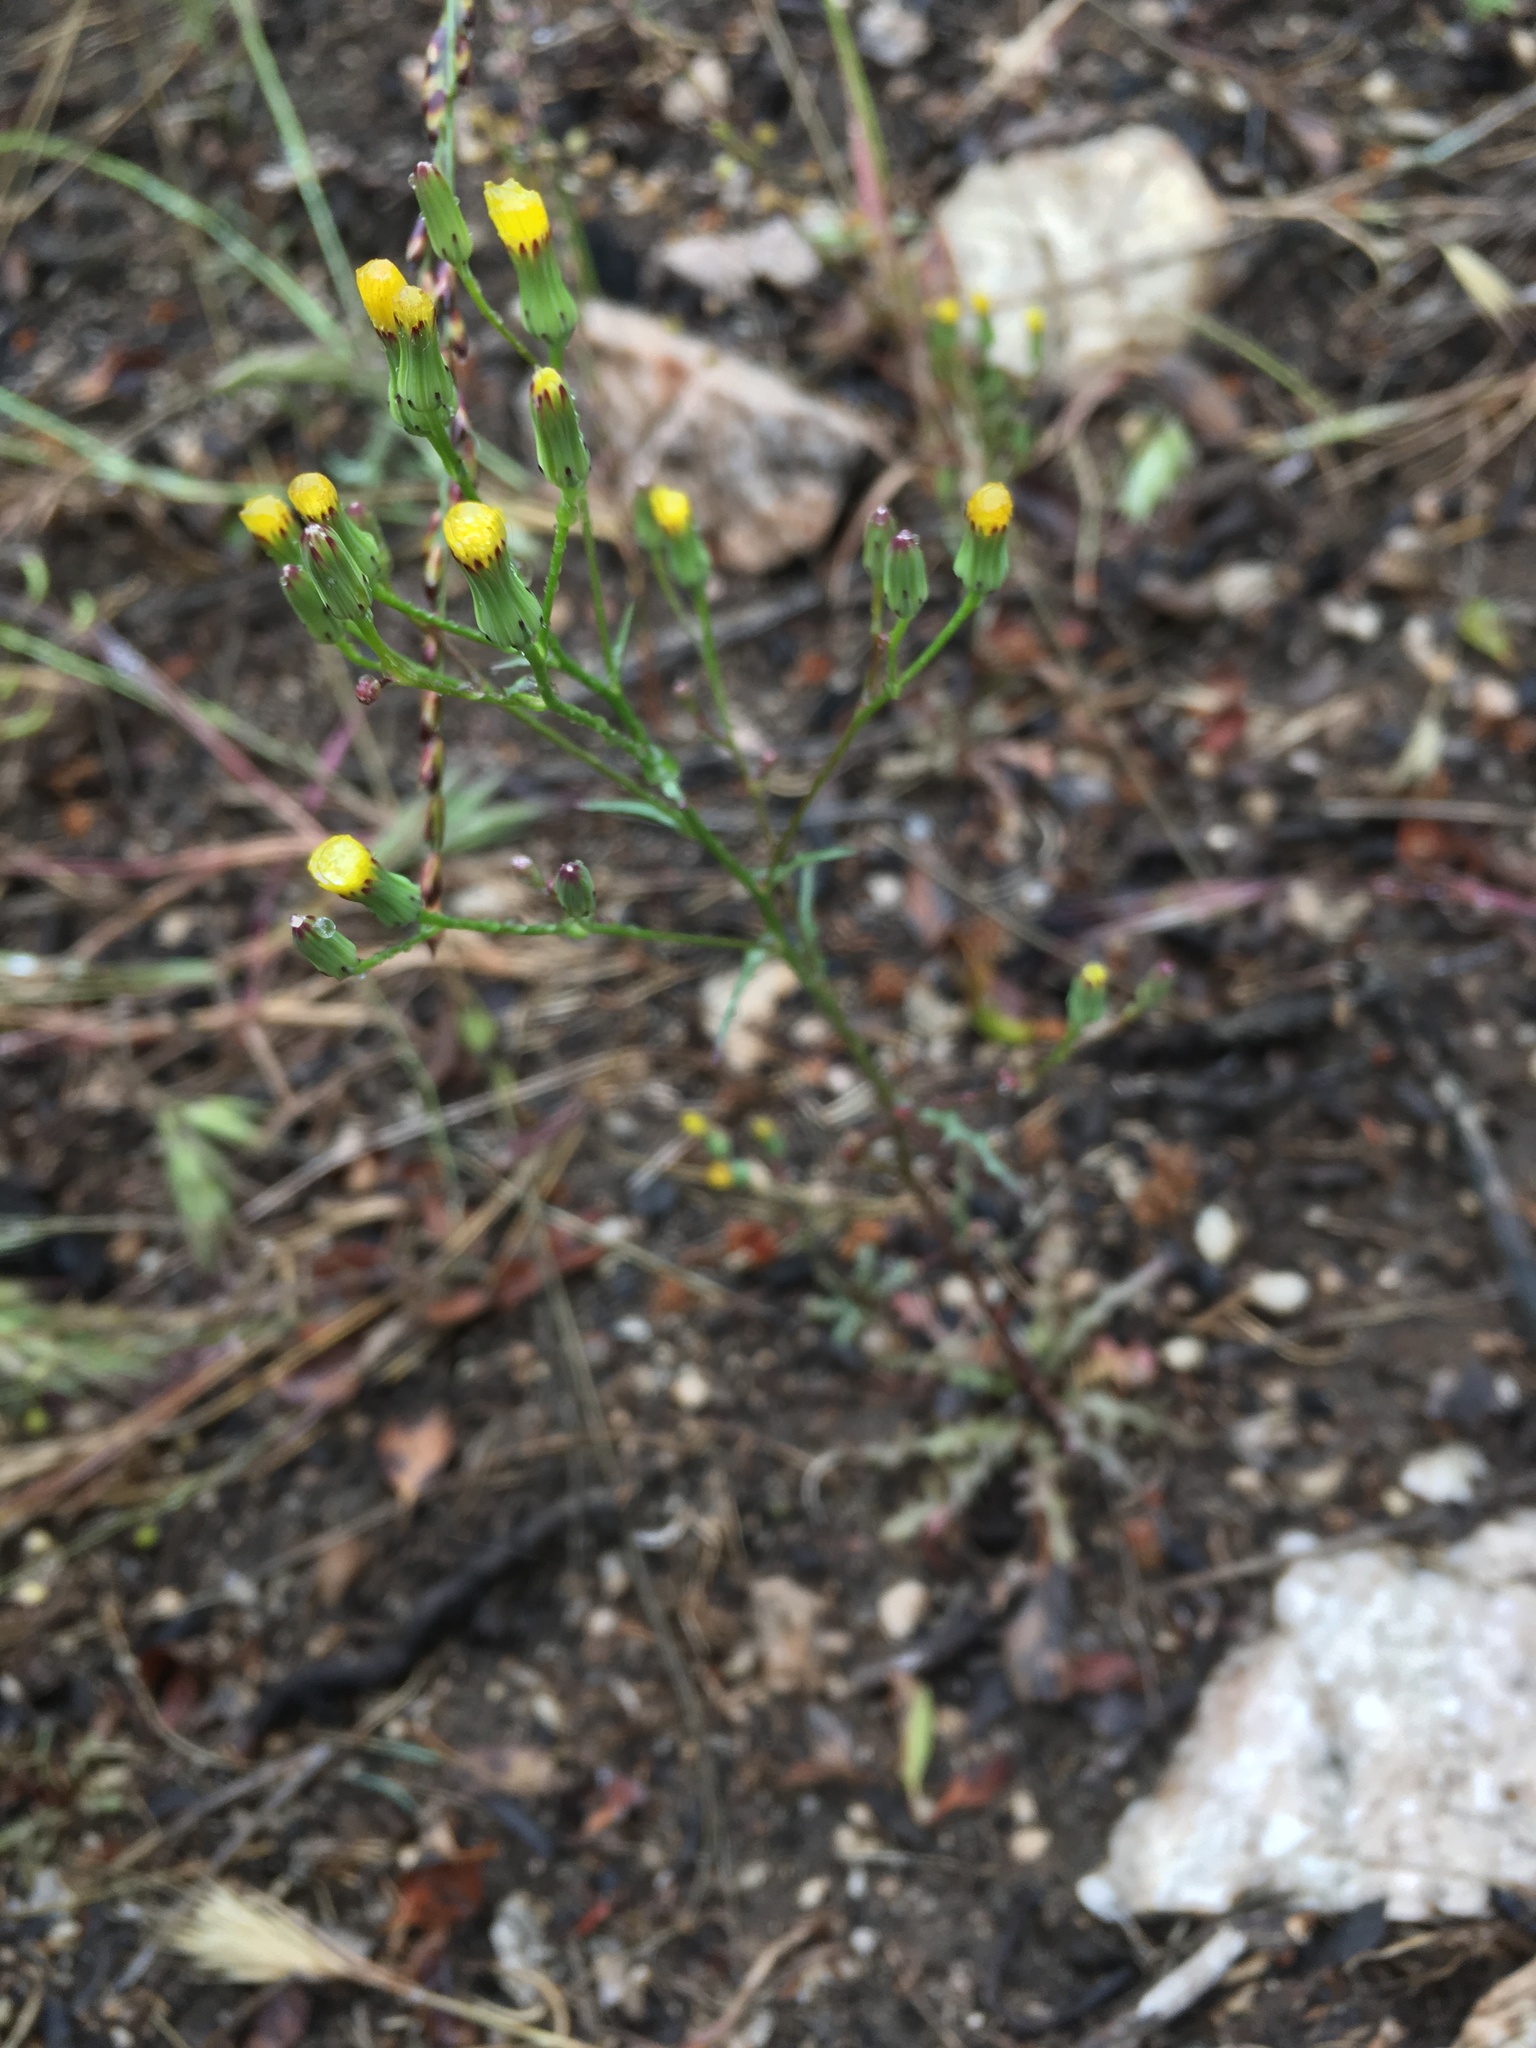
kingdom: Plantae
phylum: Tracheophyta
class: Magnoliopsida
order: Asterales
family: Asteraceae
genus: Malacothrix
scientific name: Malacothrix clevelandii
